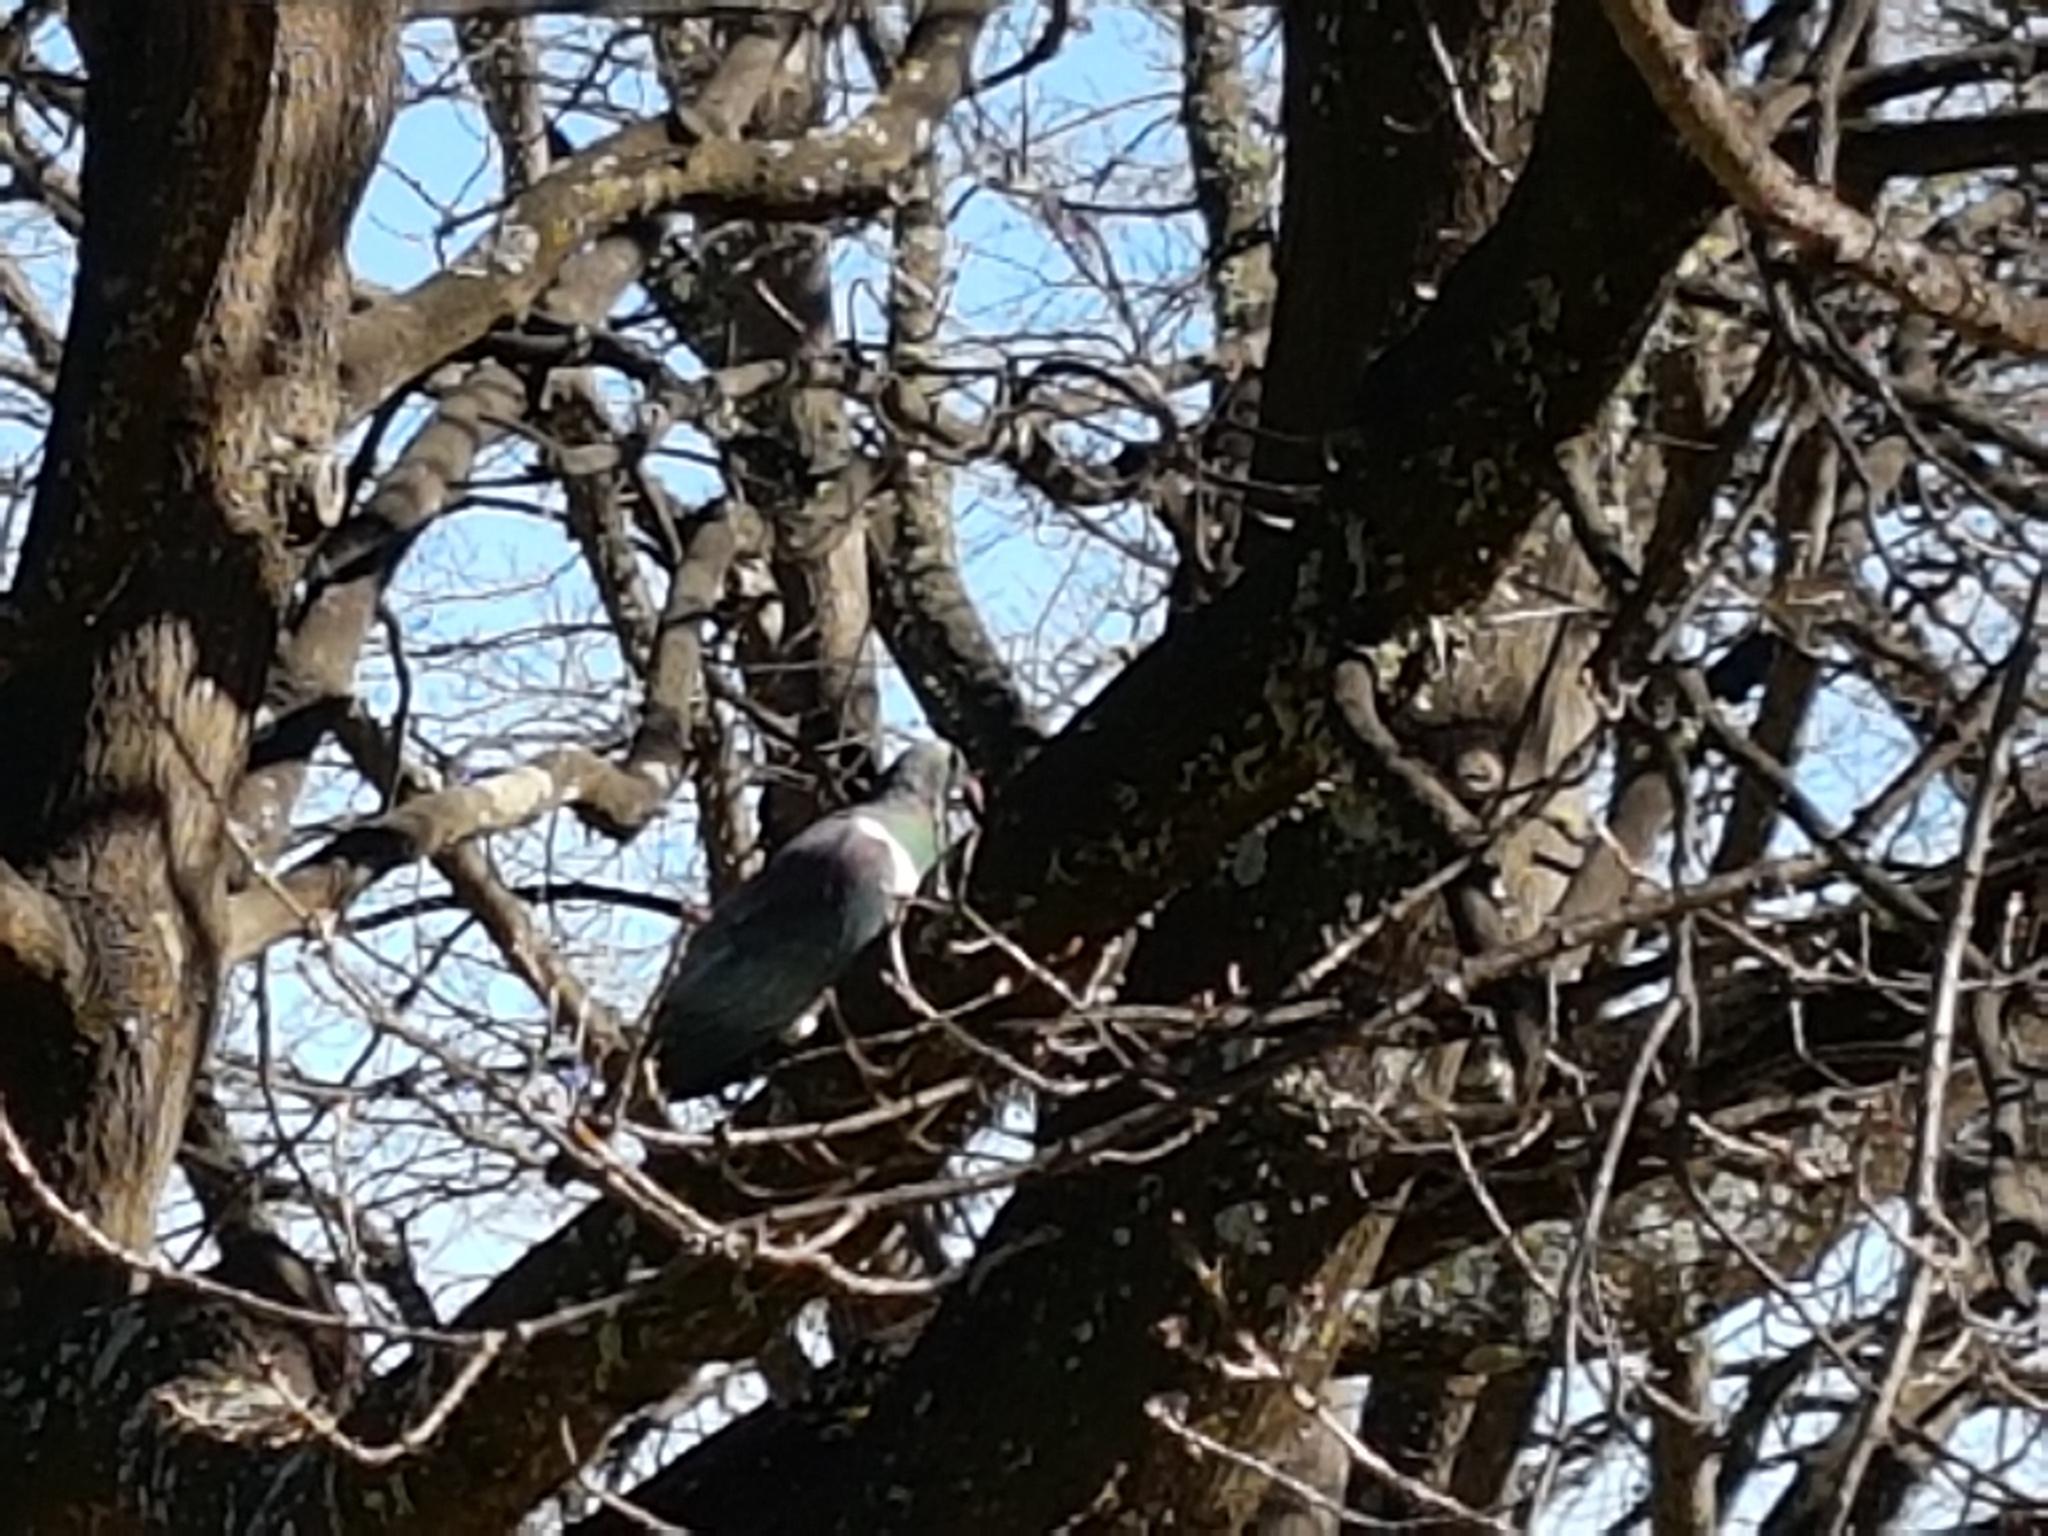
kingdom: Animalia
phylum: Chordata
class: Aves
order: Columbiformes
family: Columbidae
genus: Hemiphaga
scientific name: Hemiphaga novaeseelandiae
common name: New zealand pigeon
